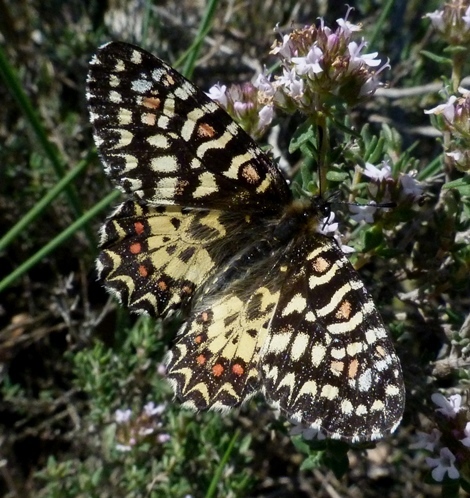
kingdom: Animalia
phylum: Arthropoda
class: Insecta
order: Lepidoptera
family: Papilionidae
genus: Zerynthia
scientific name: Zerynthia rumina
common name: Spanish festoon
